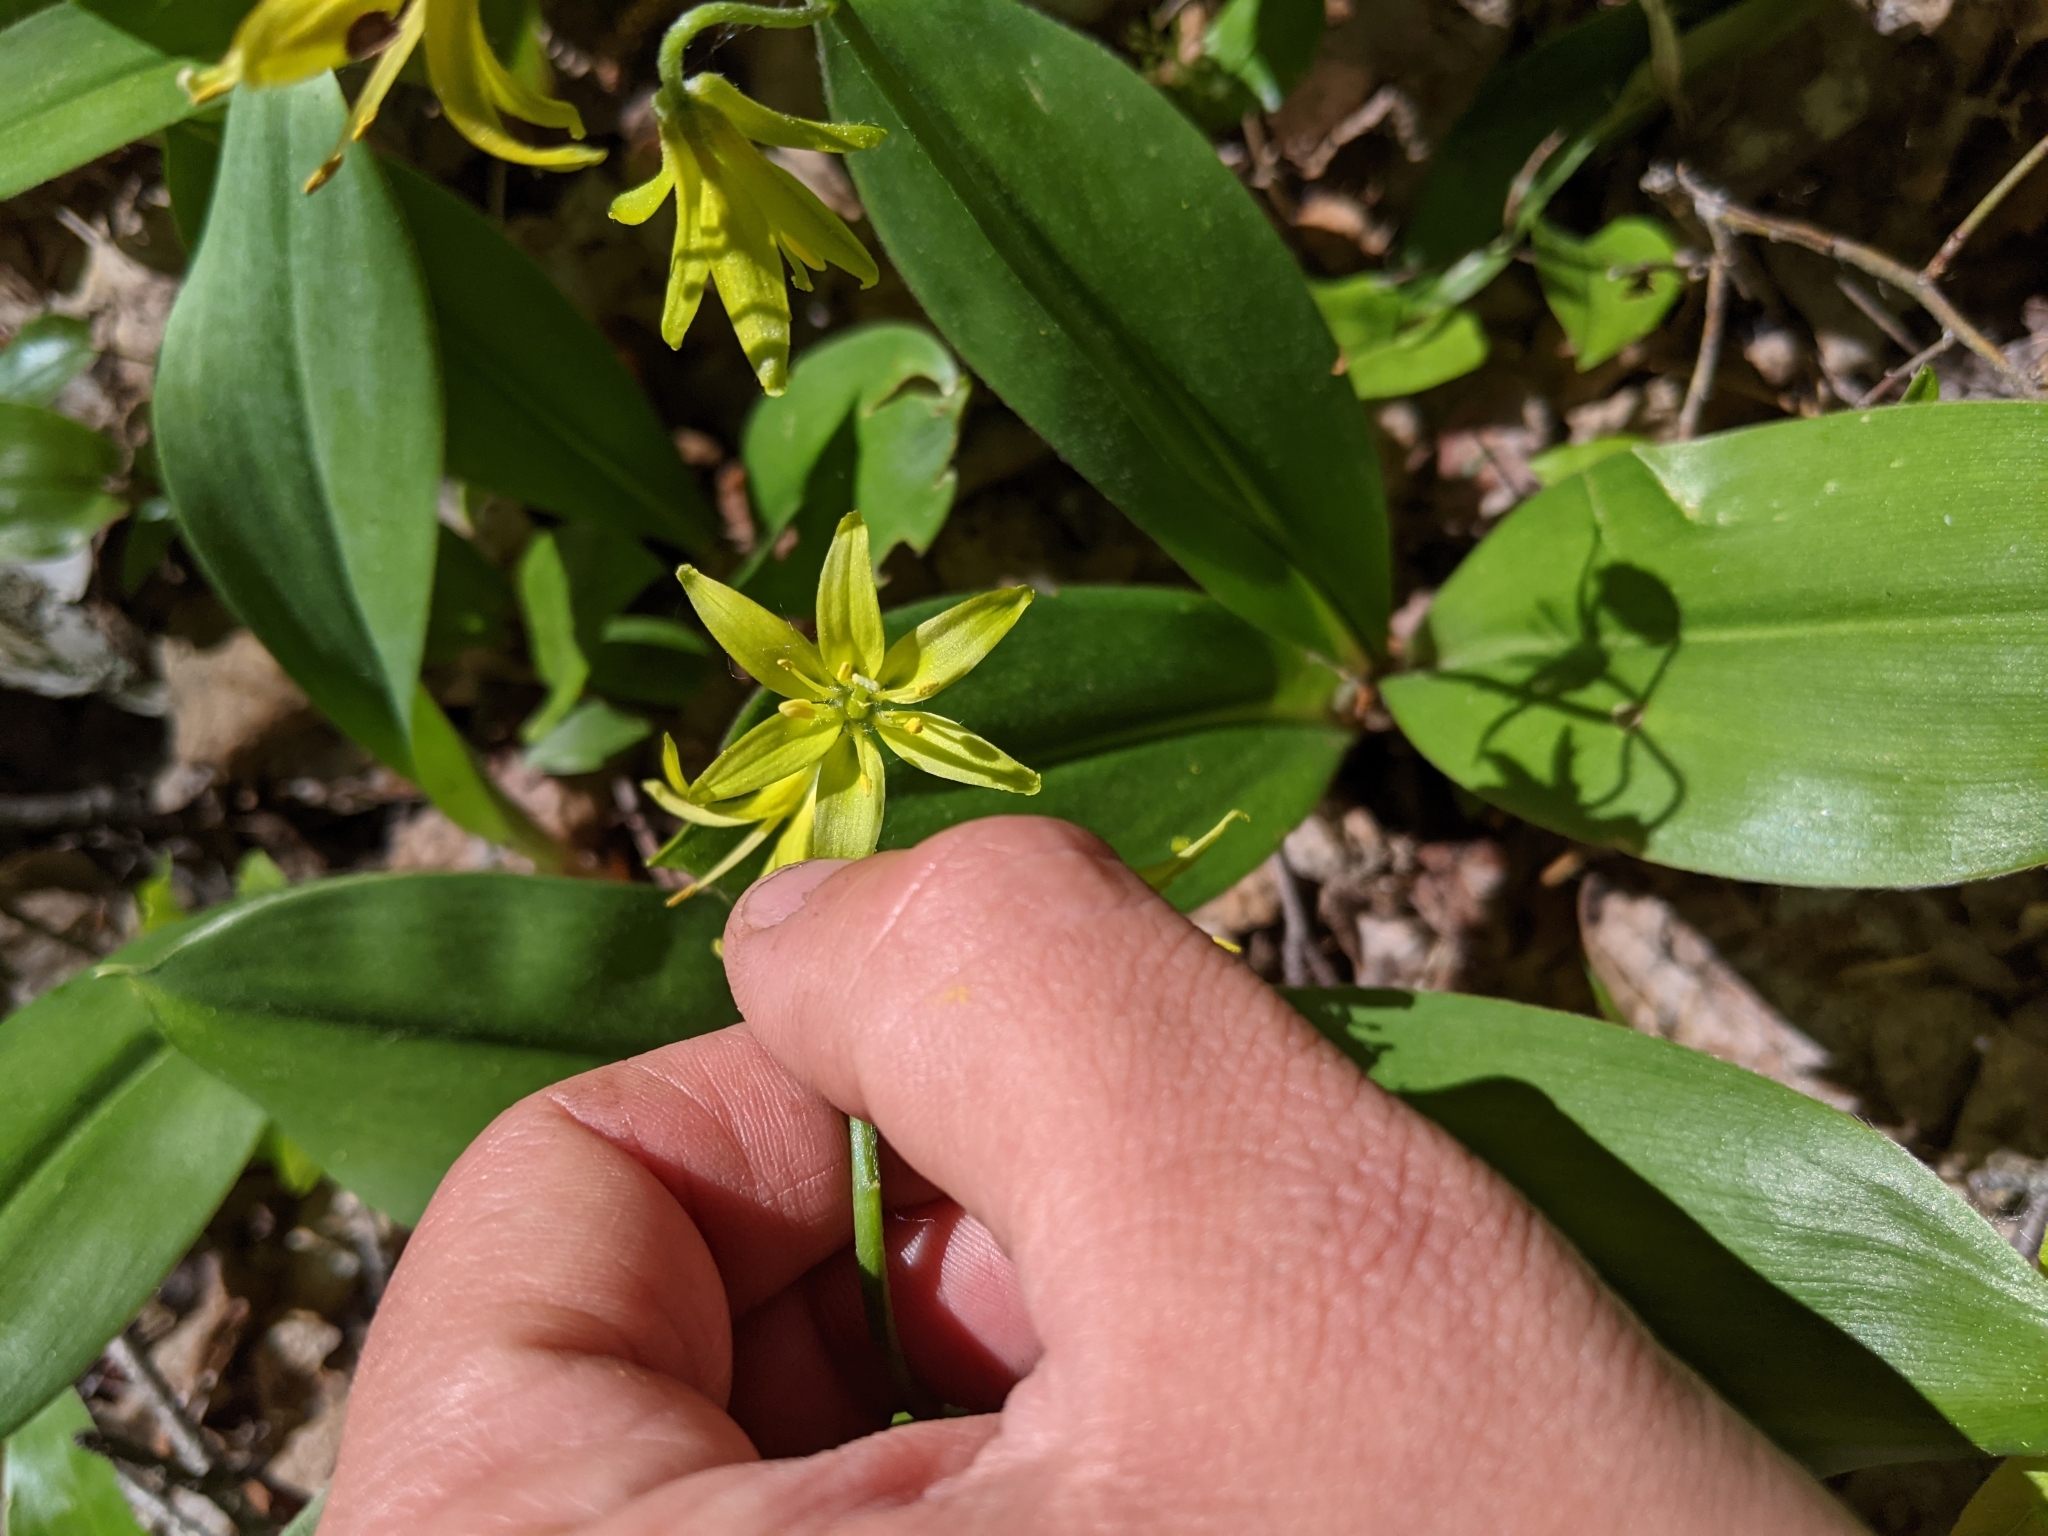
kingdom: Plantae
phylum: Tracheophyta
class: Liliopsida
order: Liliales
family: Liliaceae
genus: Clintonia
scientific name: Clintonia borealis
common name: Yellow clintonia
